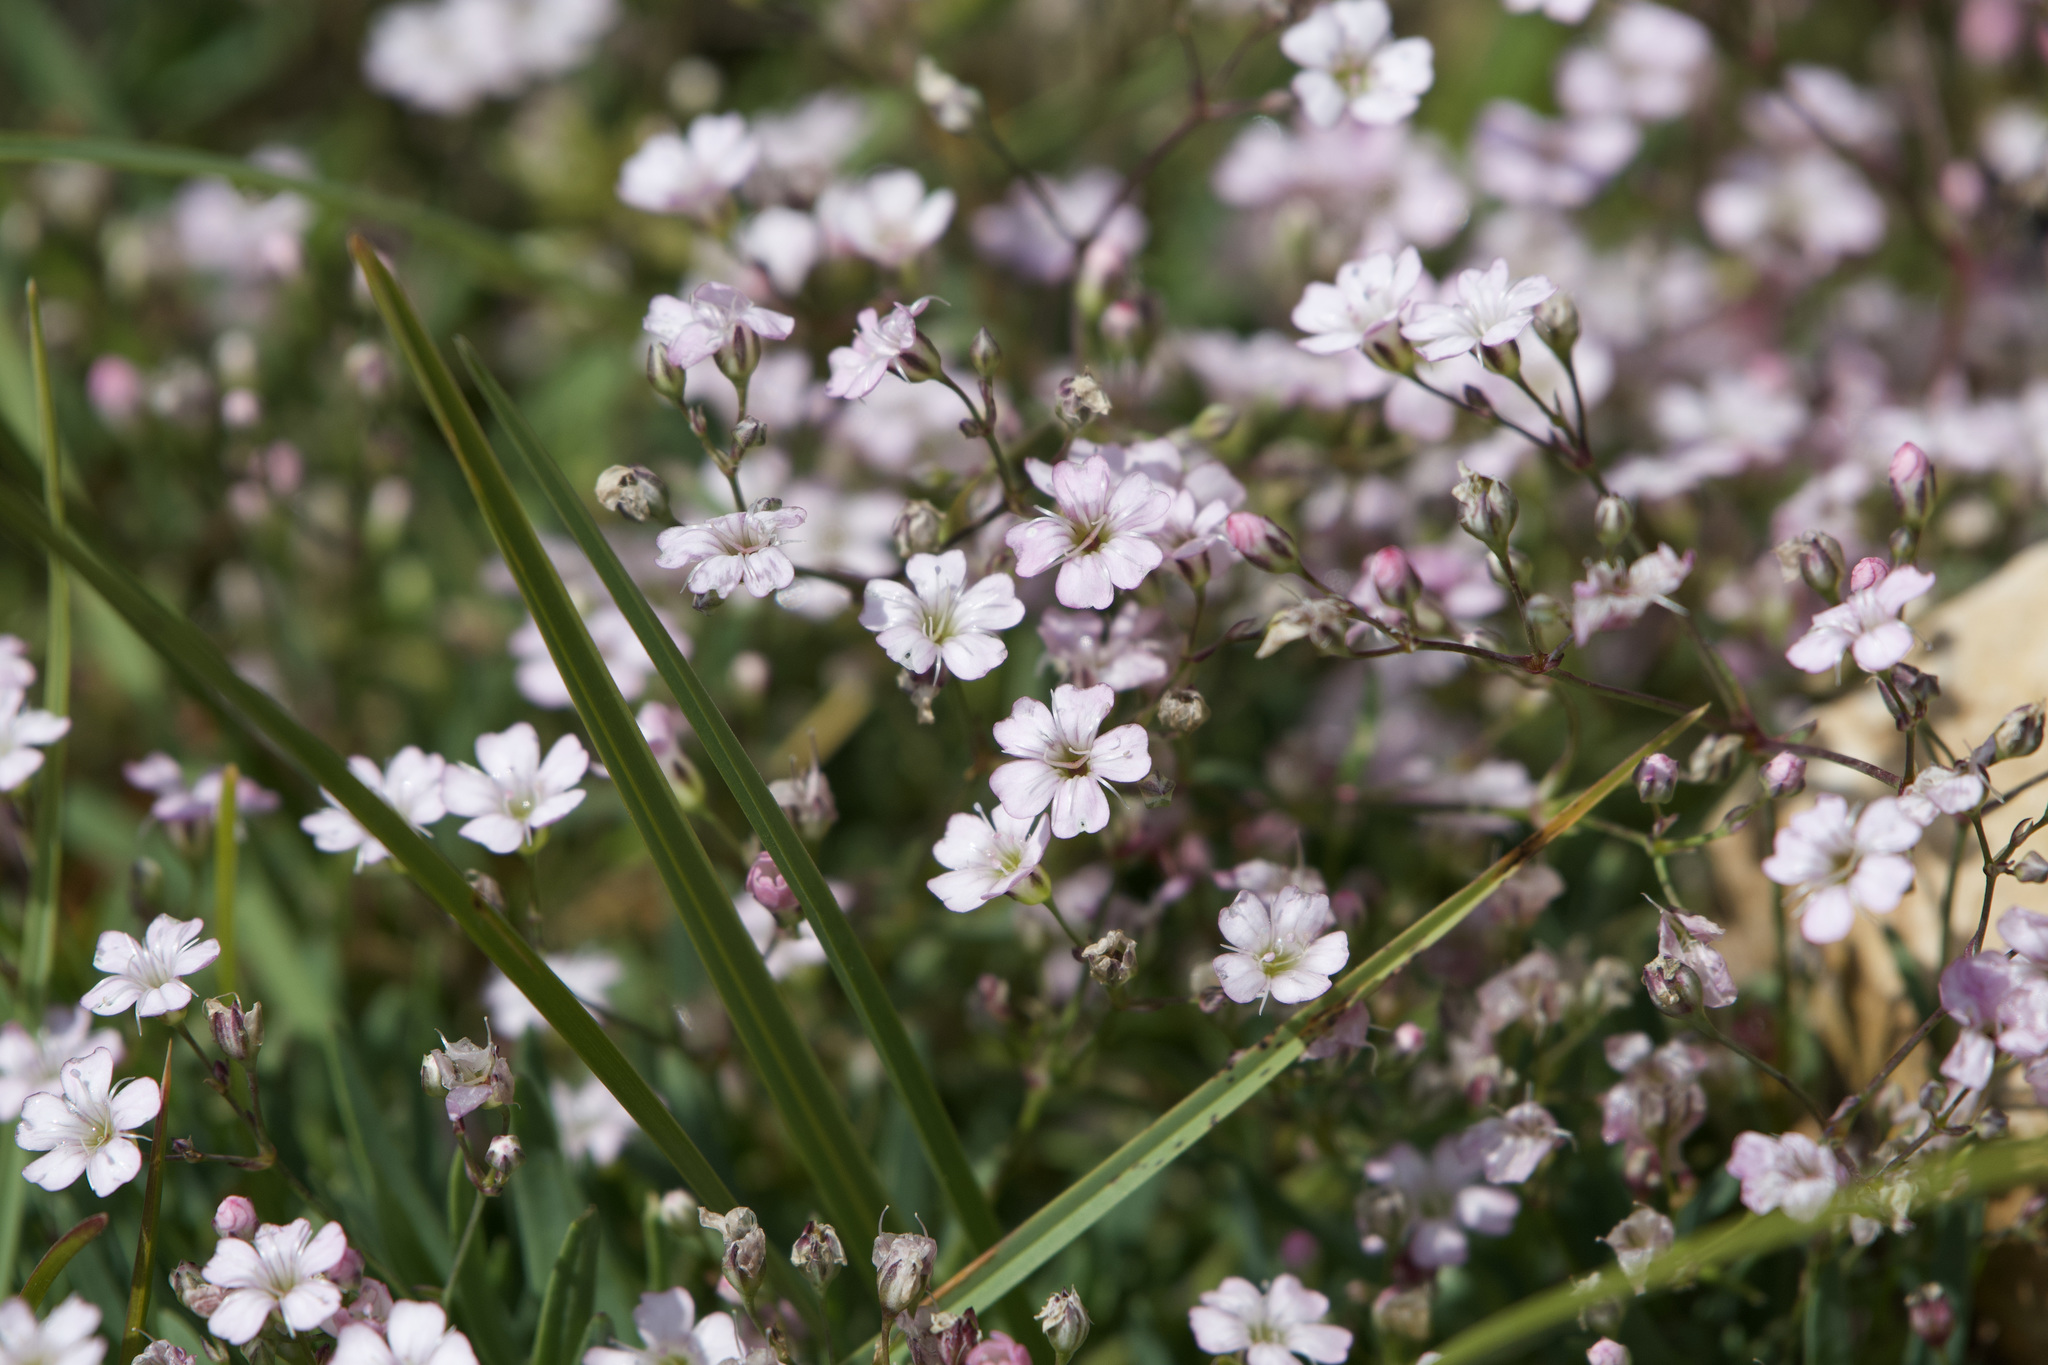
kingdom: Plantae
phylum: Tracheophyta
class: Magnoliopsida
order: Caryophyllales
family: Caryophyllaceae
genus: Gypsophila
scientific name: Gypsophila repens
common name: Creeping baby's-breath
